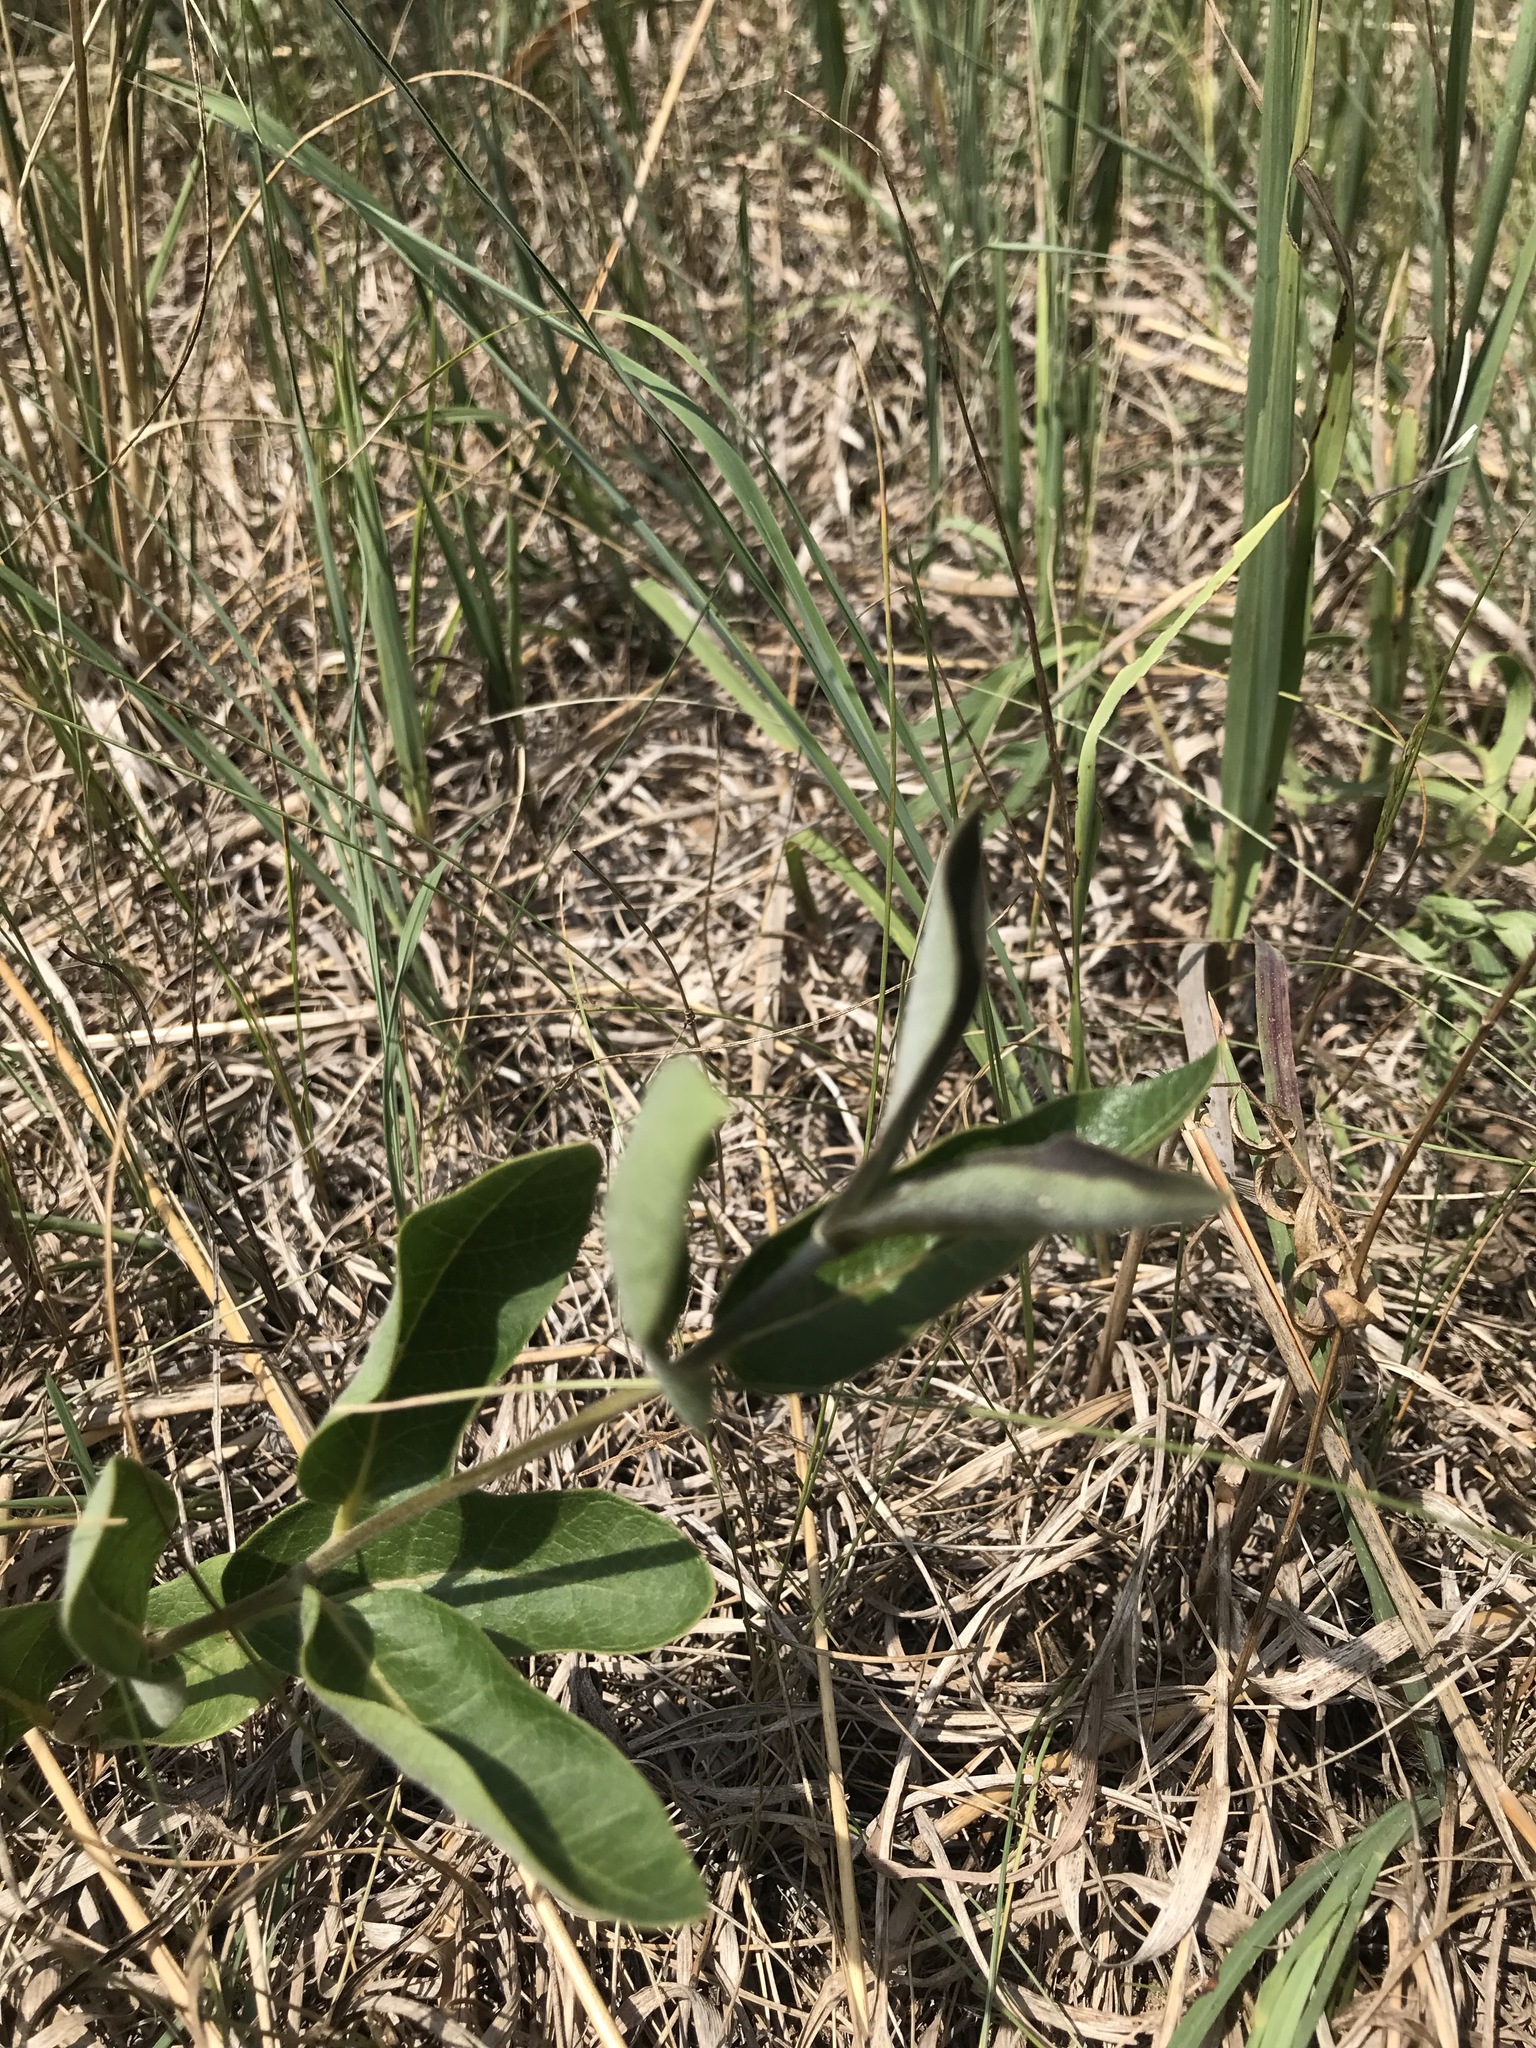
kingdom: Plantae
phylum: Tracheophyta
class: Magnoliopsida
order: Gentianales
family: Apocynaceae
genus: Asclepias
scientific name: Asclepias ovalifolia
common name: Dwarf milkweed
